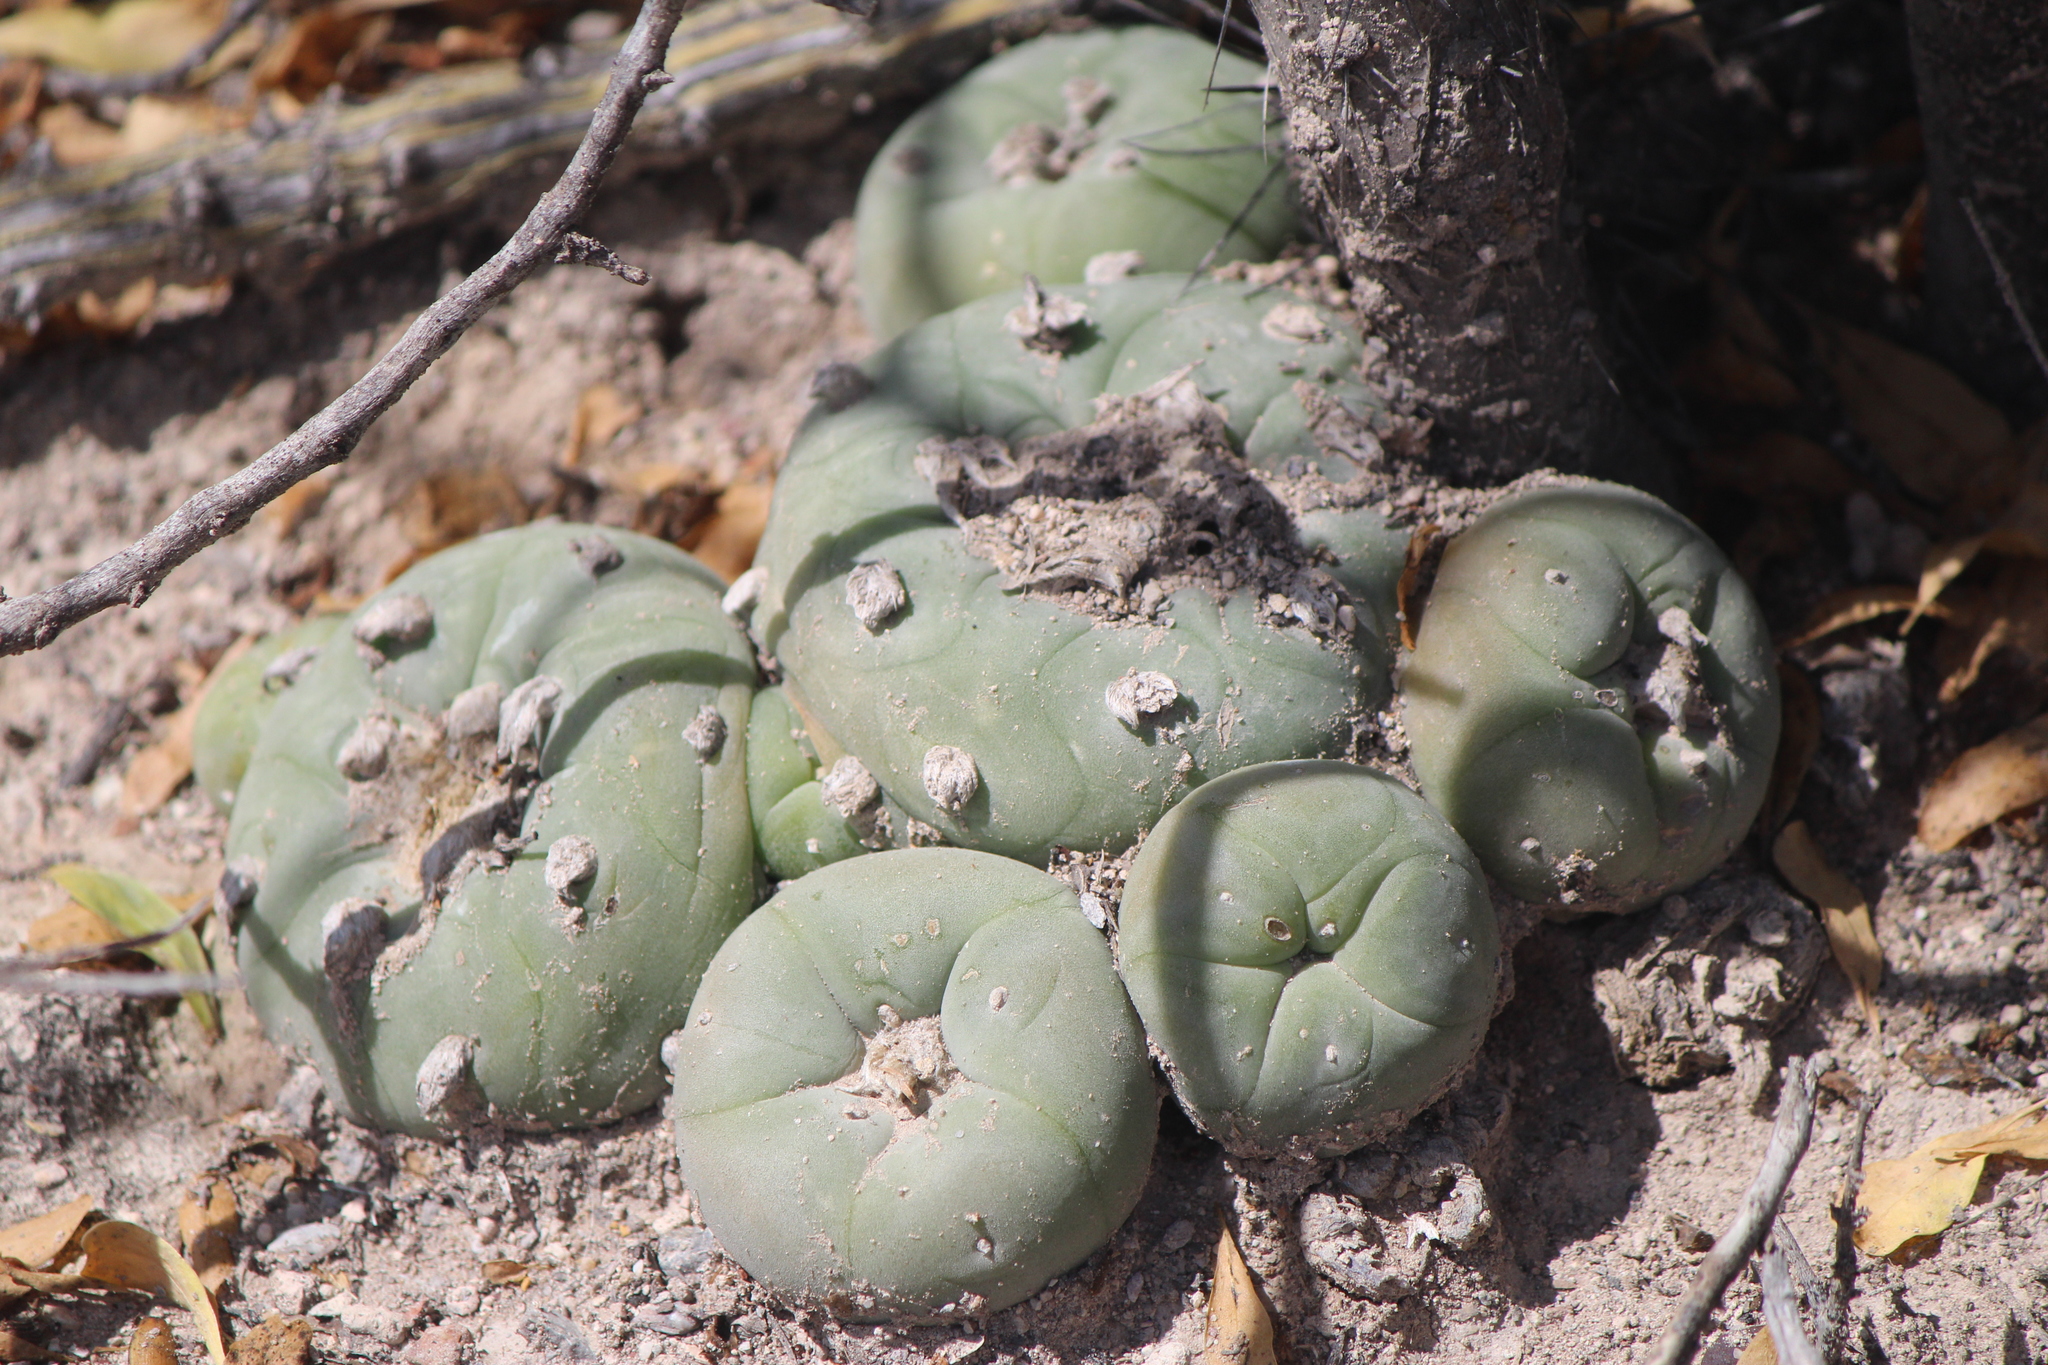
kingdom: Plantae
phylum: Tracheophyta
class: Magnoliopsida
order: Caryophyllales
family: Cactaceae
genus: Lophophora
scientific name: Lophophora diffusa
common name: Peyote
